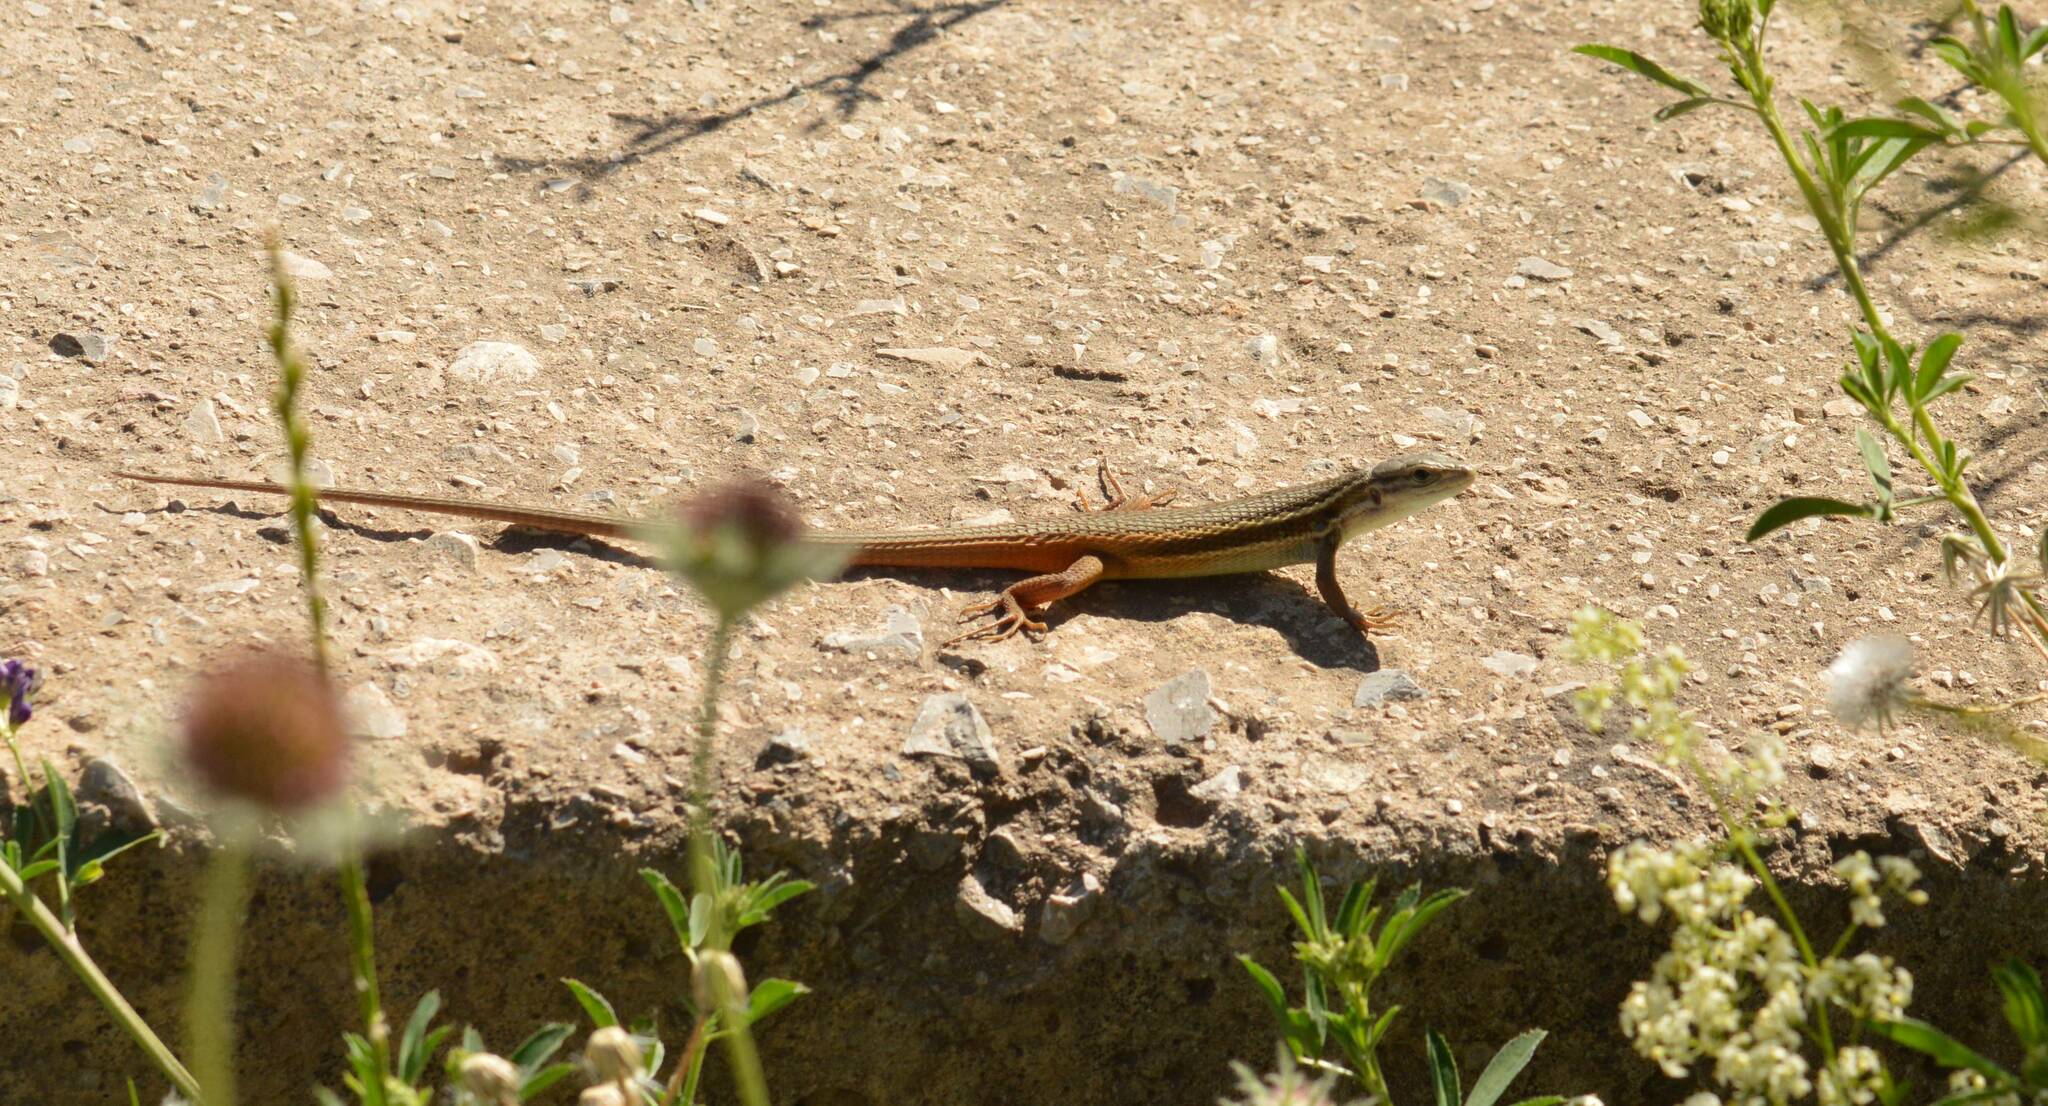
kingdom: Animalia
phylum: Chordata
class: Squamata
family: Lacertidae
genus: Psammodromus
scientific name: Psammodromus algirus
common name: Algerian psammodromus
